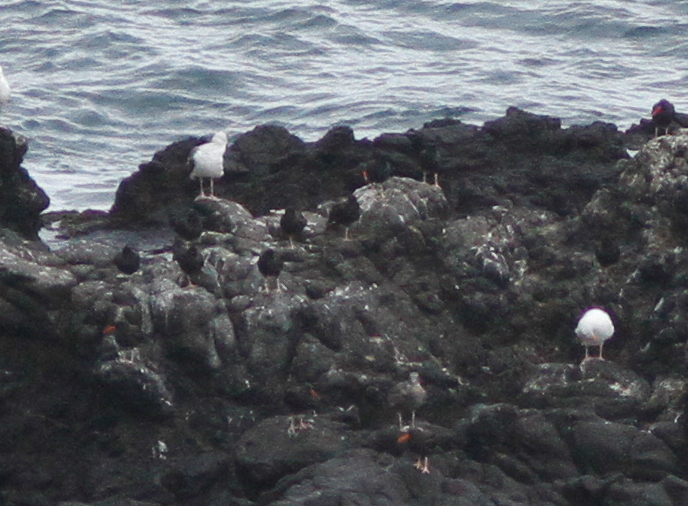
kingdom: Animalia
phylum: Chordata
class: Aves
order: Charadriiformes
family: Haematopodidae
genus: Haematopus
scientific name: Haematopus bachmani
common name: Black oystercatcher
